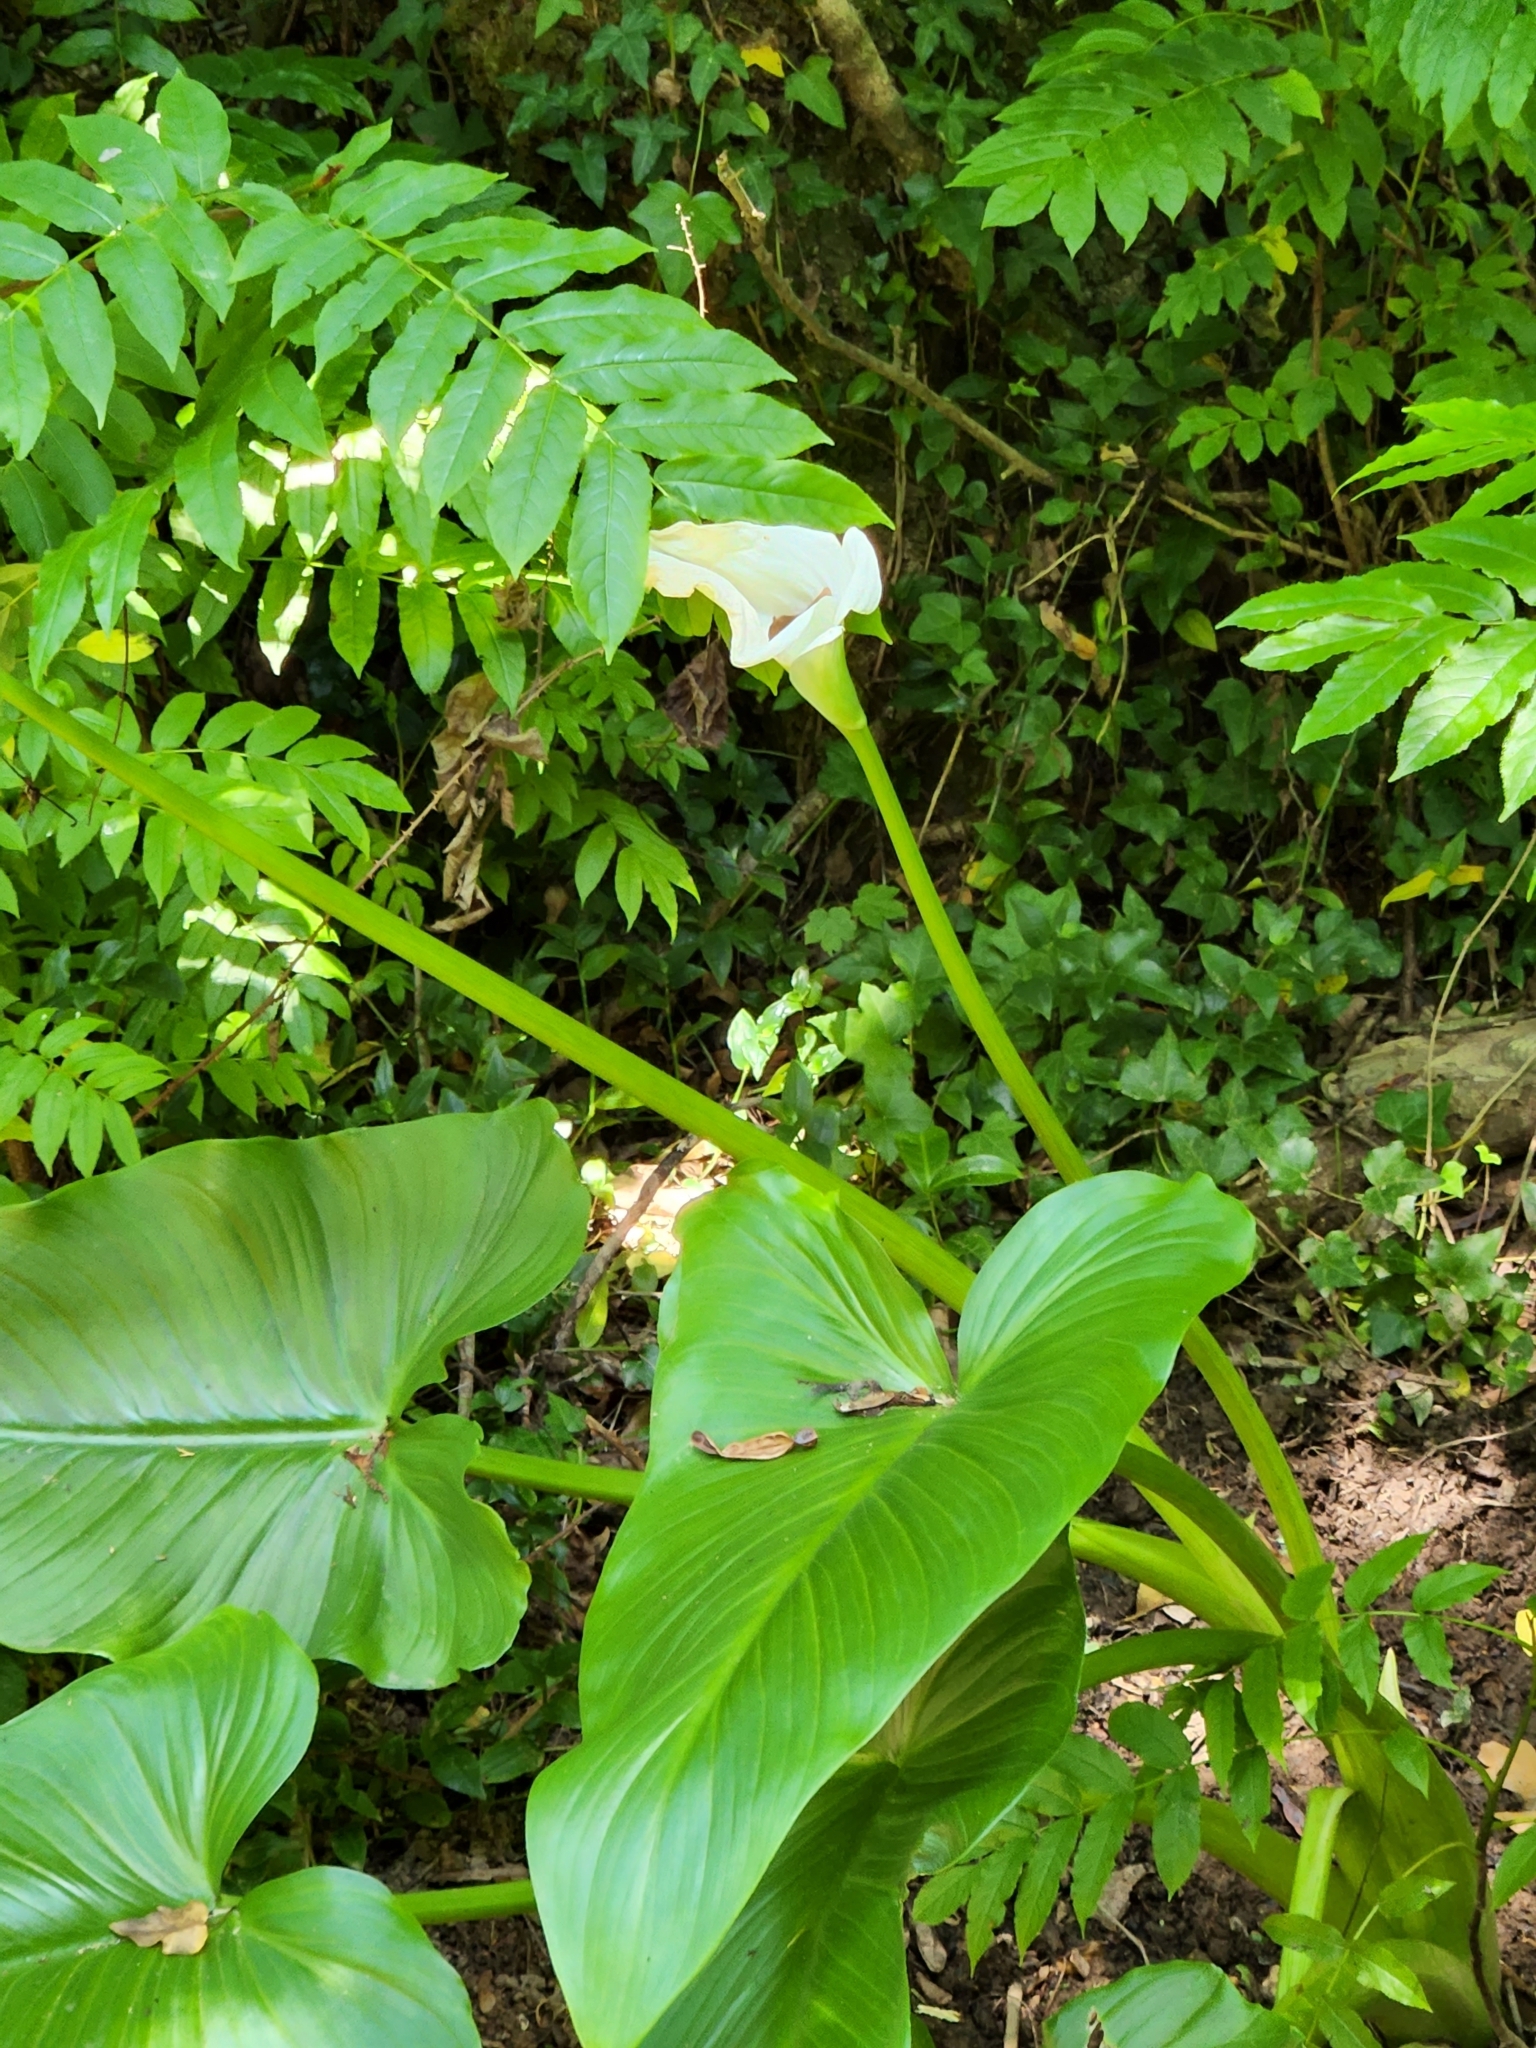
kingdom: Plantae
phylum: Tracheophyta
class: Liliopsida
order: Alismatales
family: Araceae
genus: Zantedeschia
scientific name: Zantedeschia aethiopica
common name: Altar-lily
